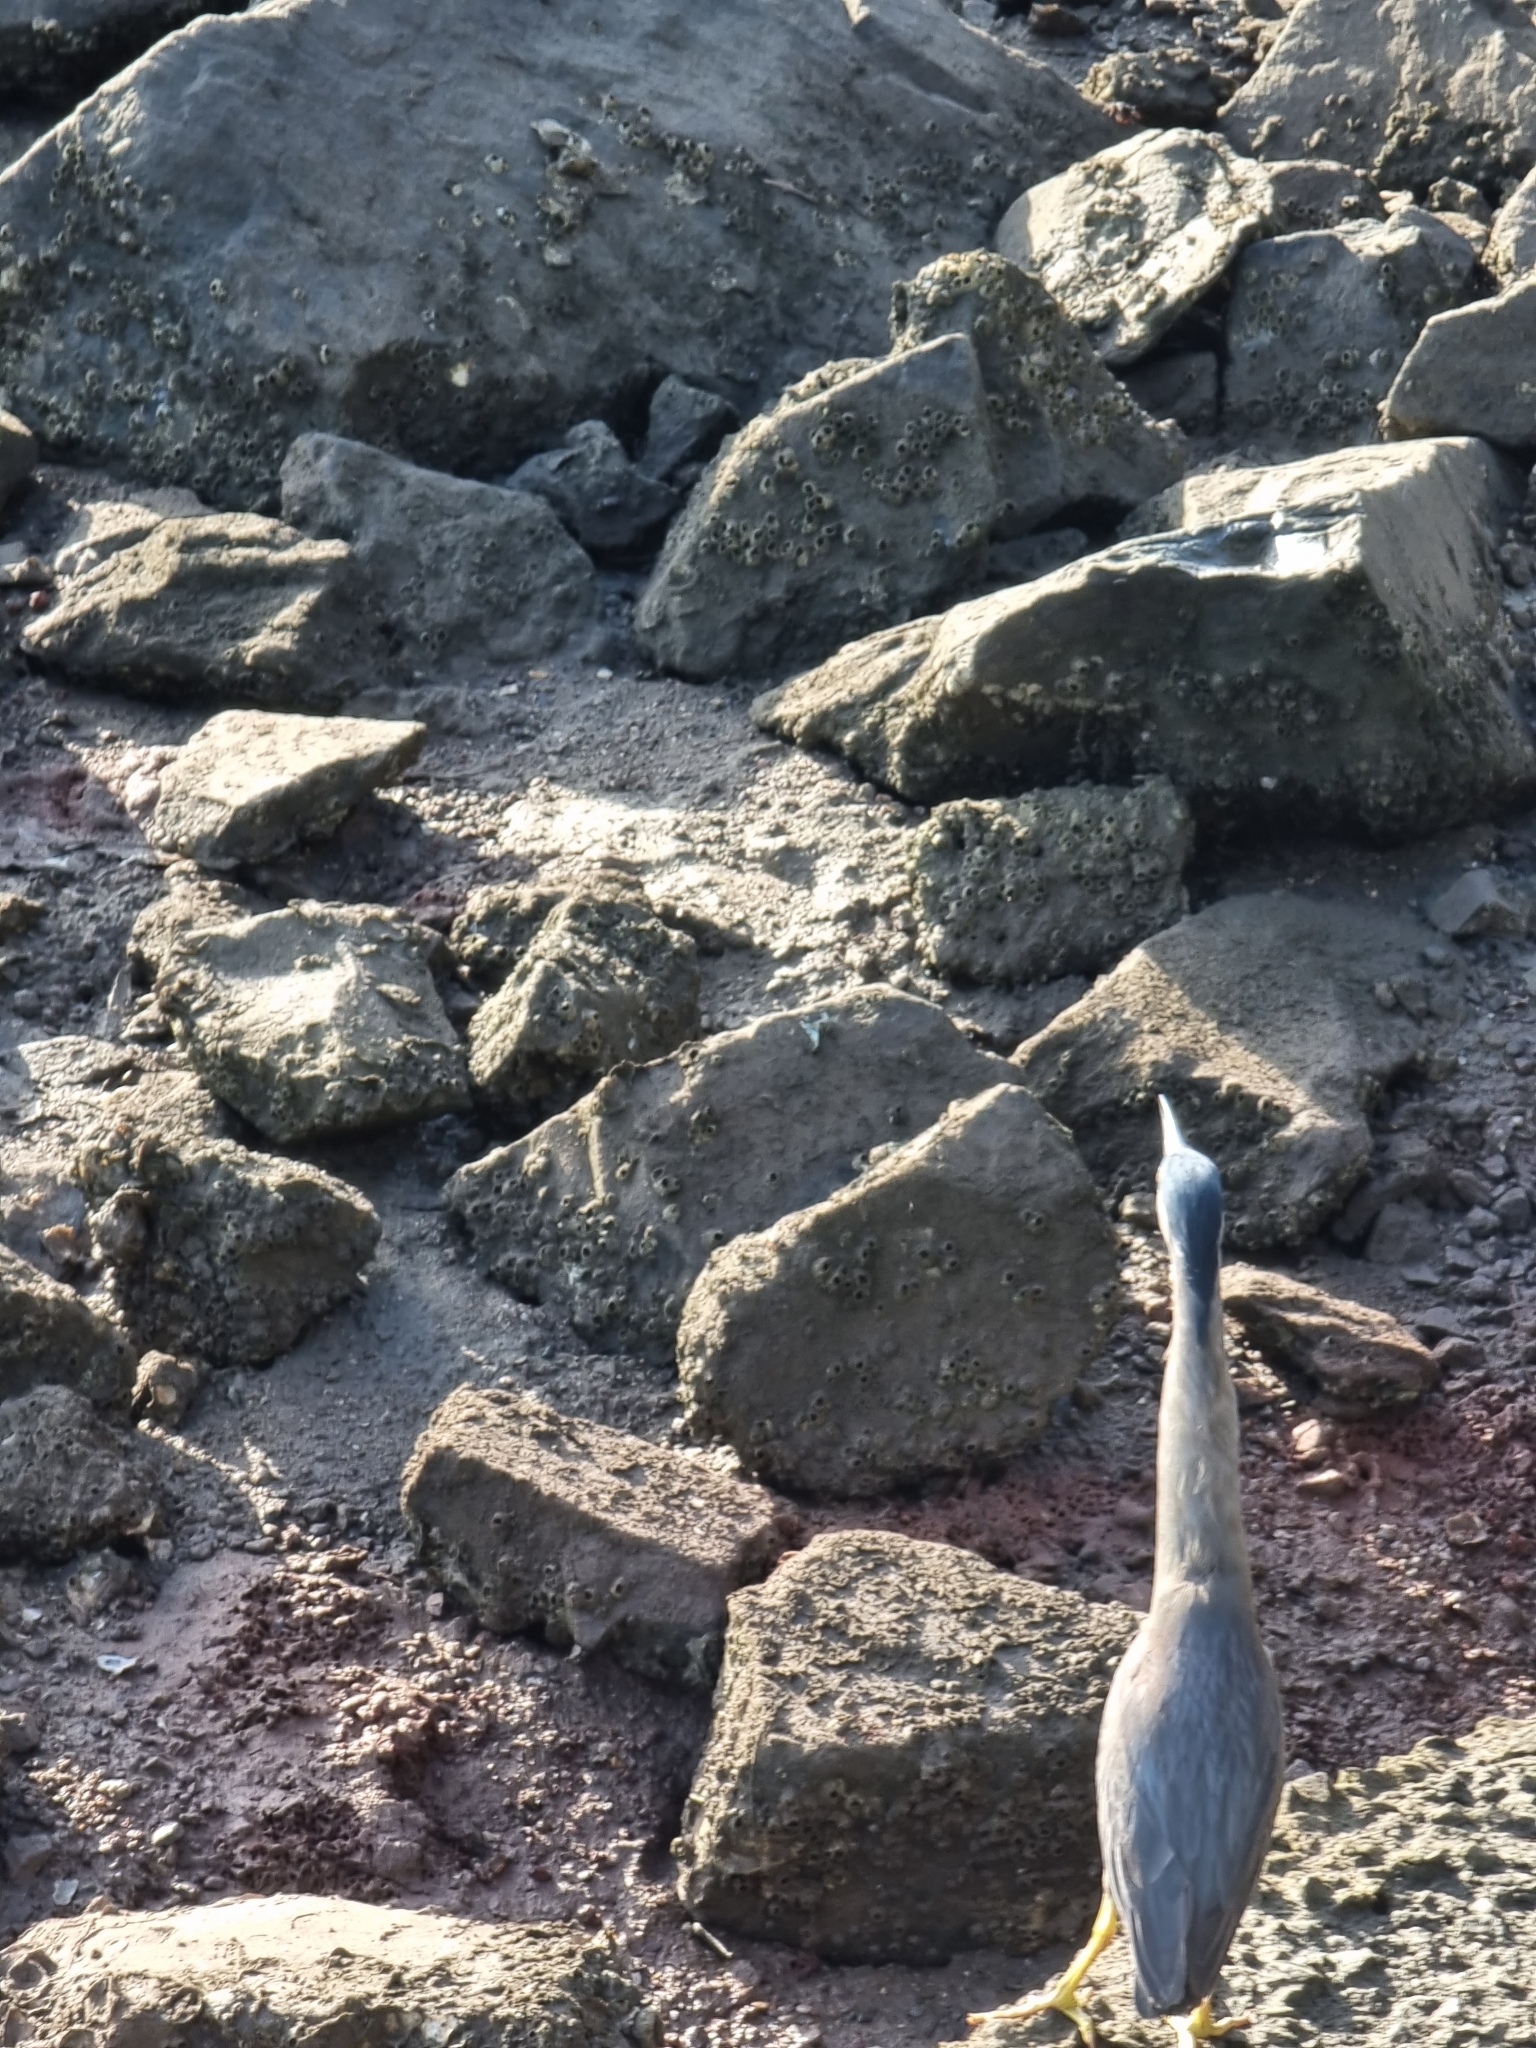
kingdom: Animalia
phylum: Chordata
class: Aves
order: Pelecaniformes
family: Ardeidae
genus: Butorides
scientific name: Butorides striata
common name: Striated heron
